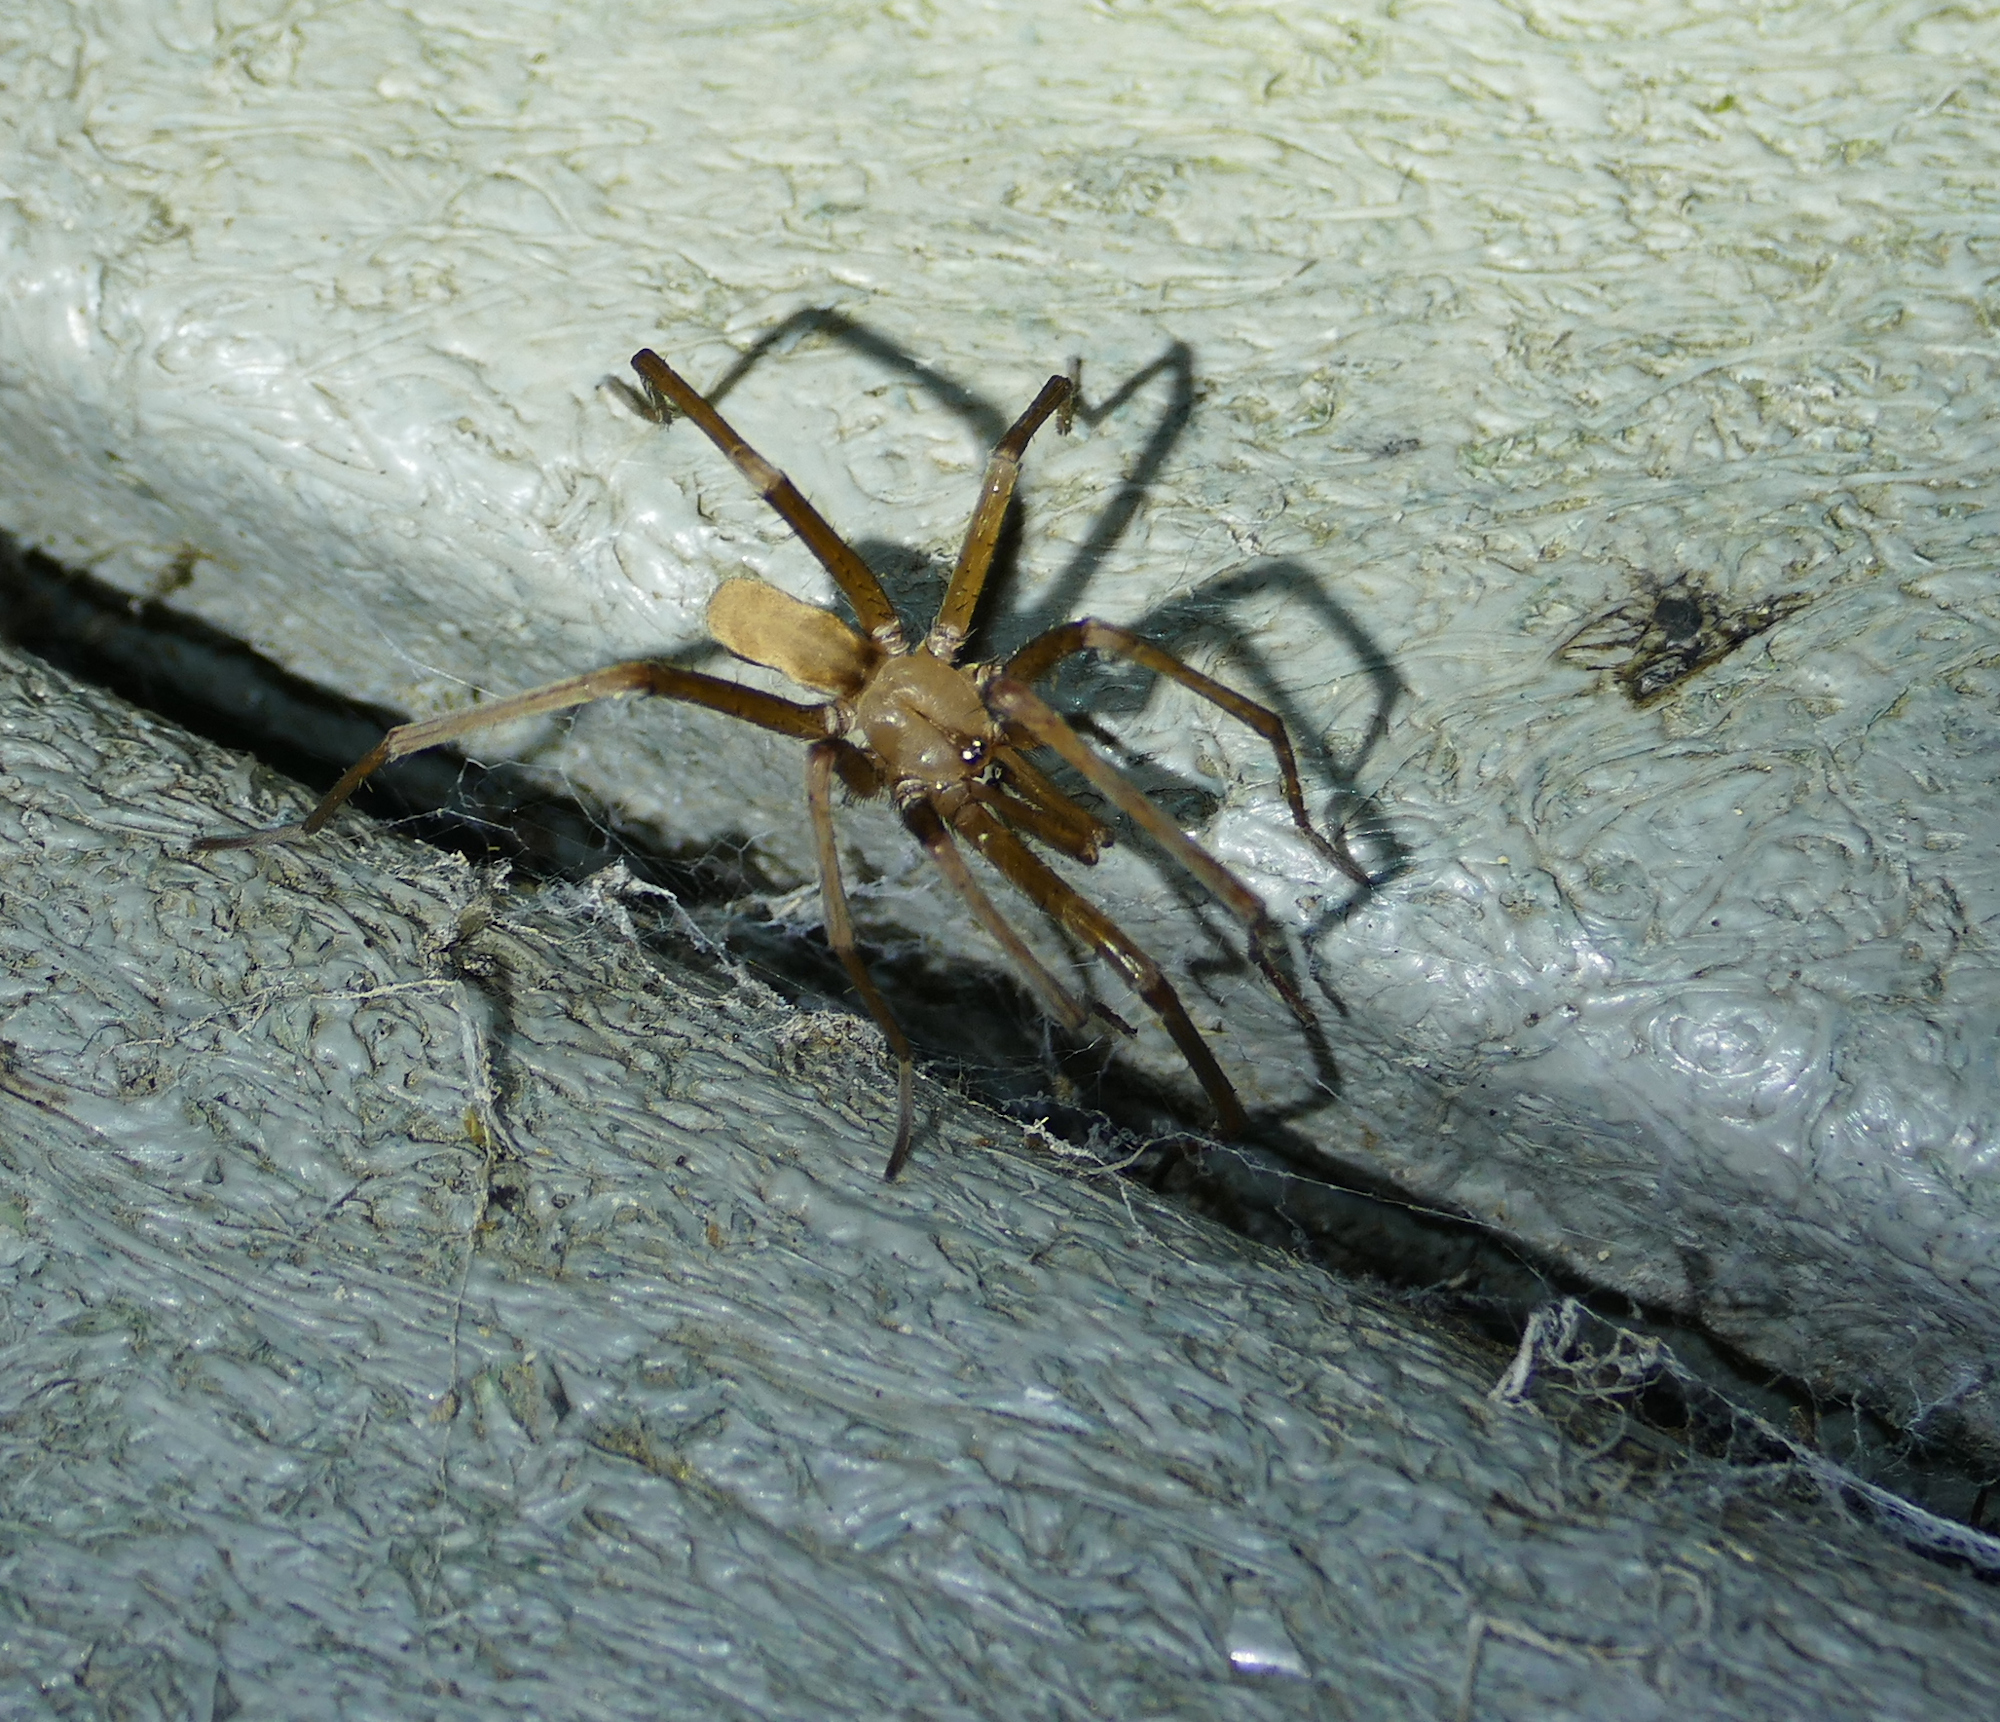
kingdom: Animalia
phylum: Arthropoda
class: Arachnida
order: Araneae
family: Filistatidae
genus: Kukulcania
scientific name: Kukulcania hibernalis
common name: Crevice weaver
